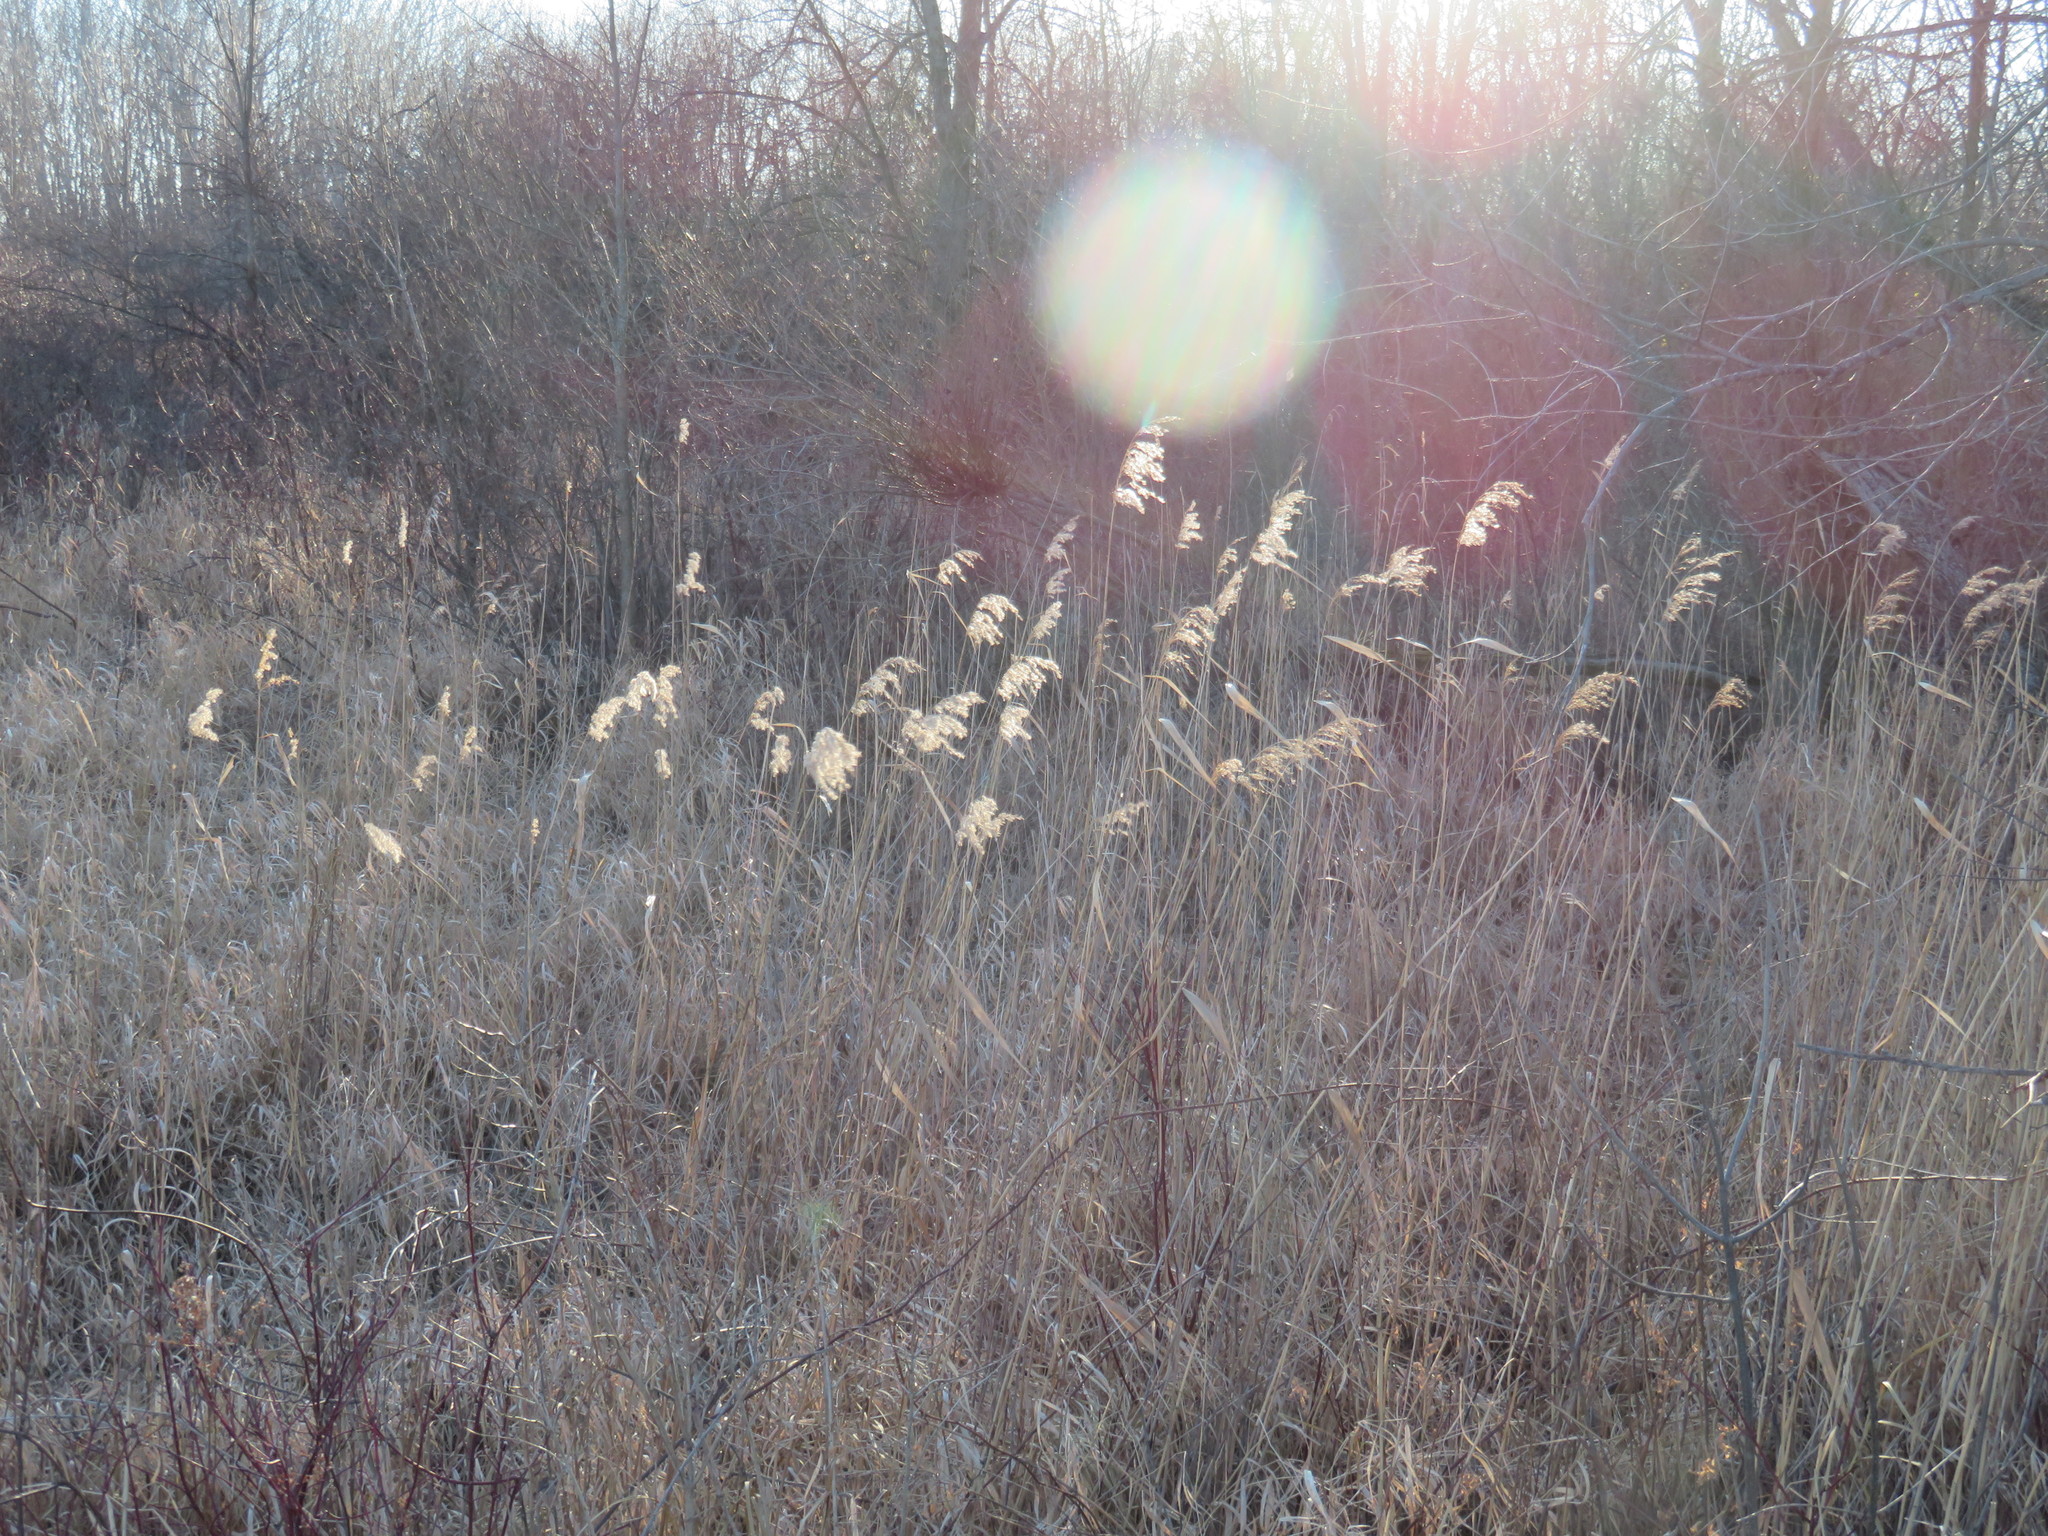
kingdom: Plantae
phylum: Tracheophyta
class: Liliopsida
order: Poales
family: Poaceae
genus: Phragmites
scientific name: Phragmites australis
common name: Common reed
